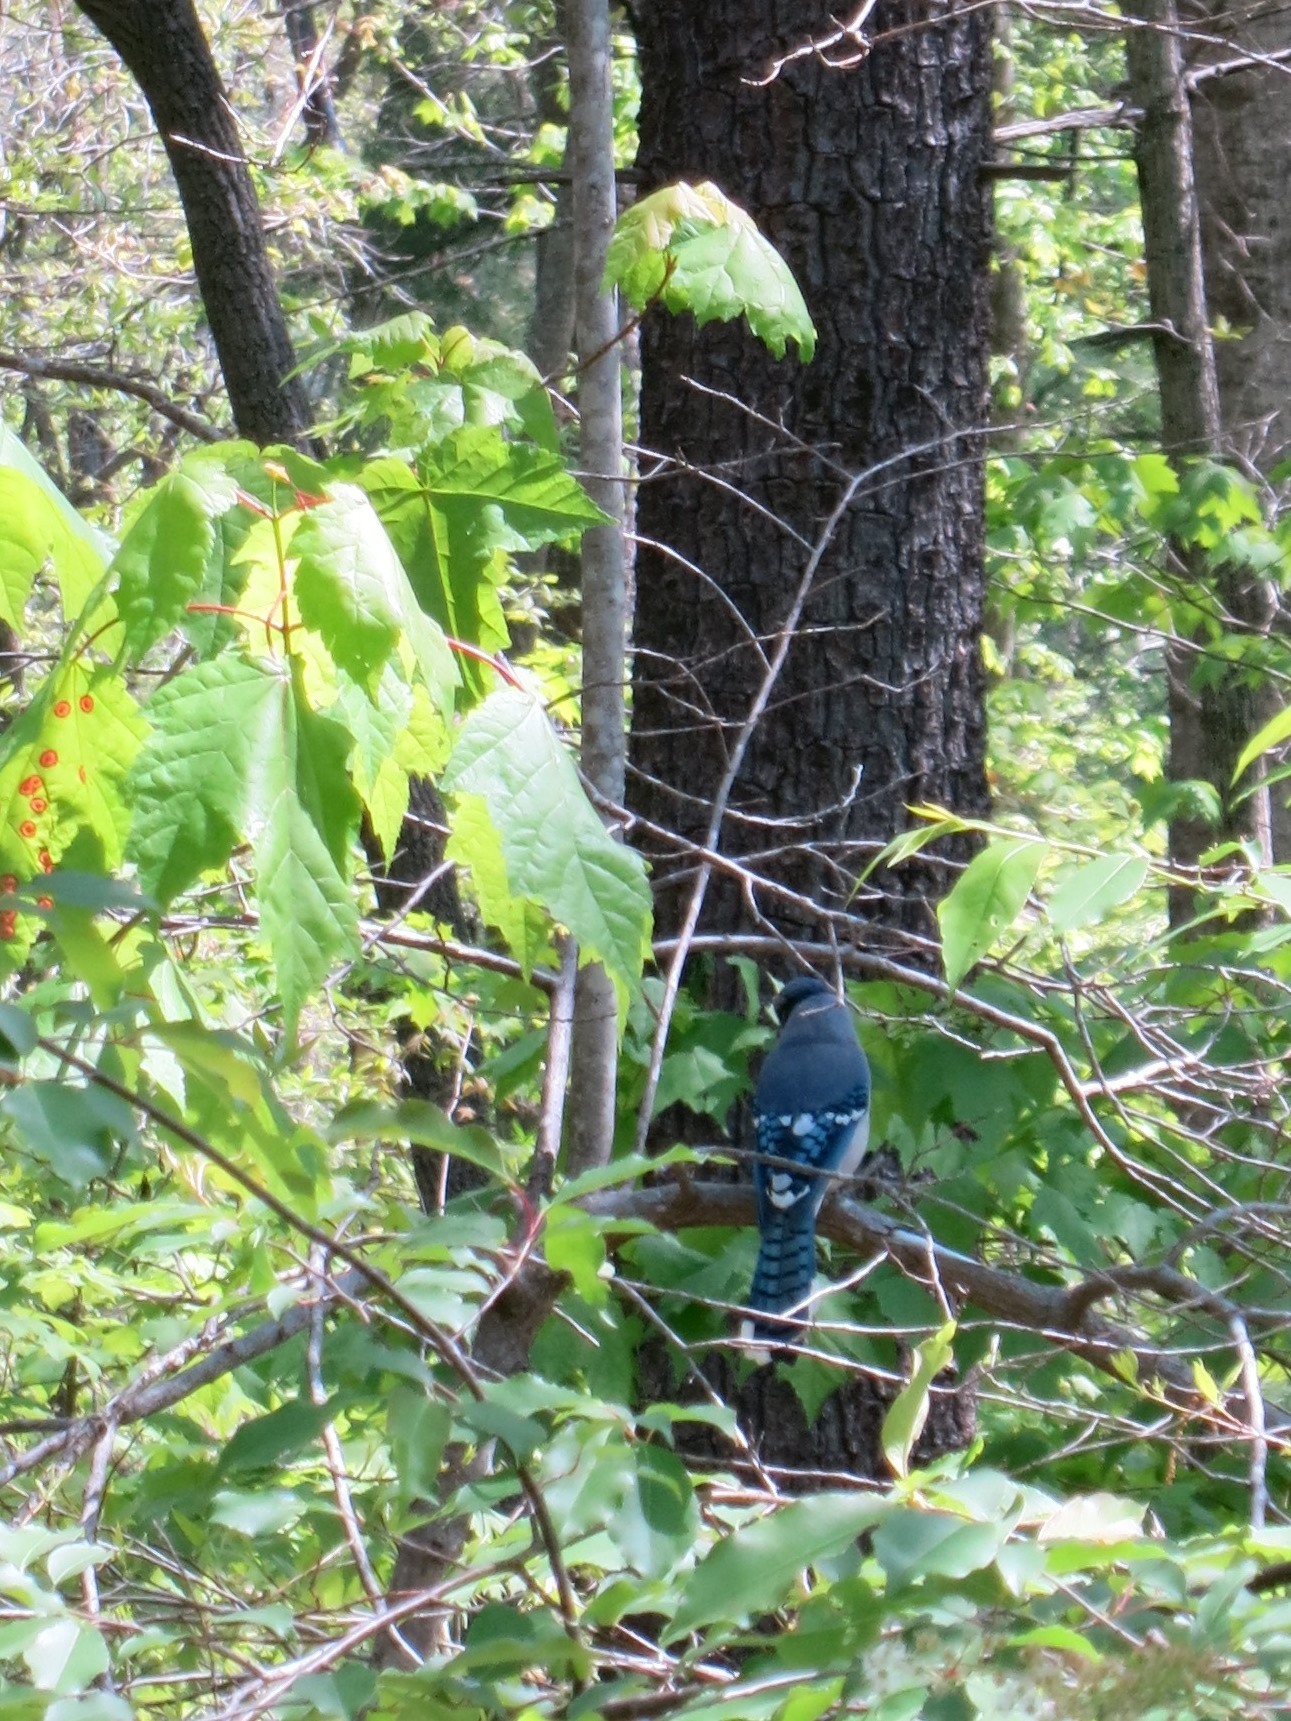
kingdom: Animalia
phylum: Chordata
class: Aves
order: Passeriformes
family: Corvidae
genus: Cyanocitta
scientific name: Cyanocitta cristata
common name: Blue jay
